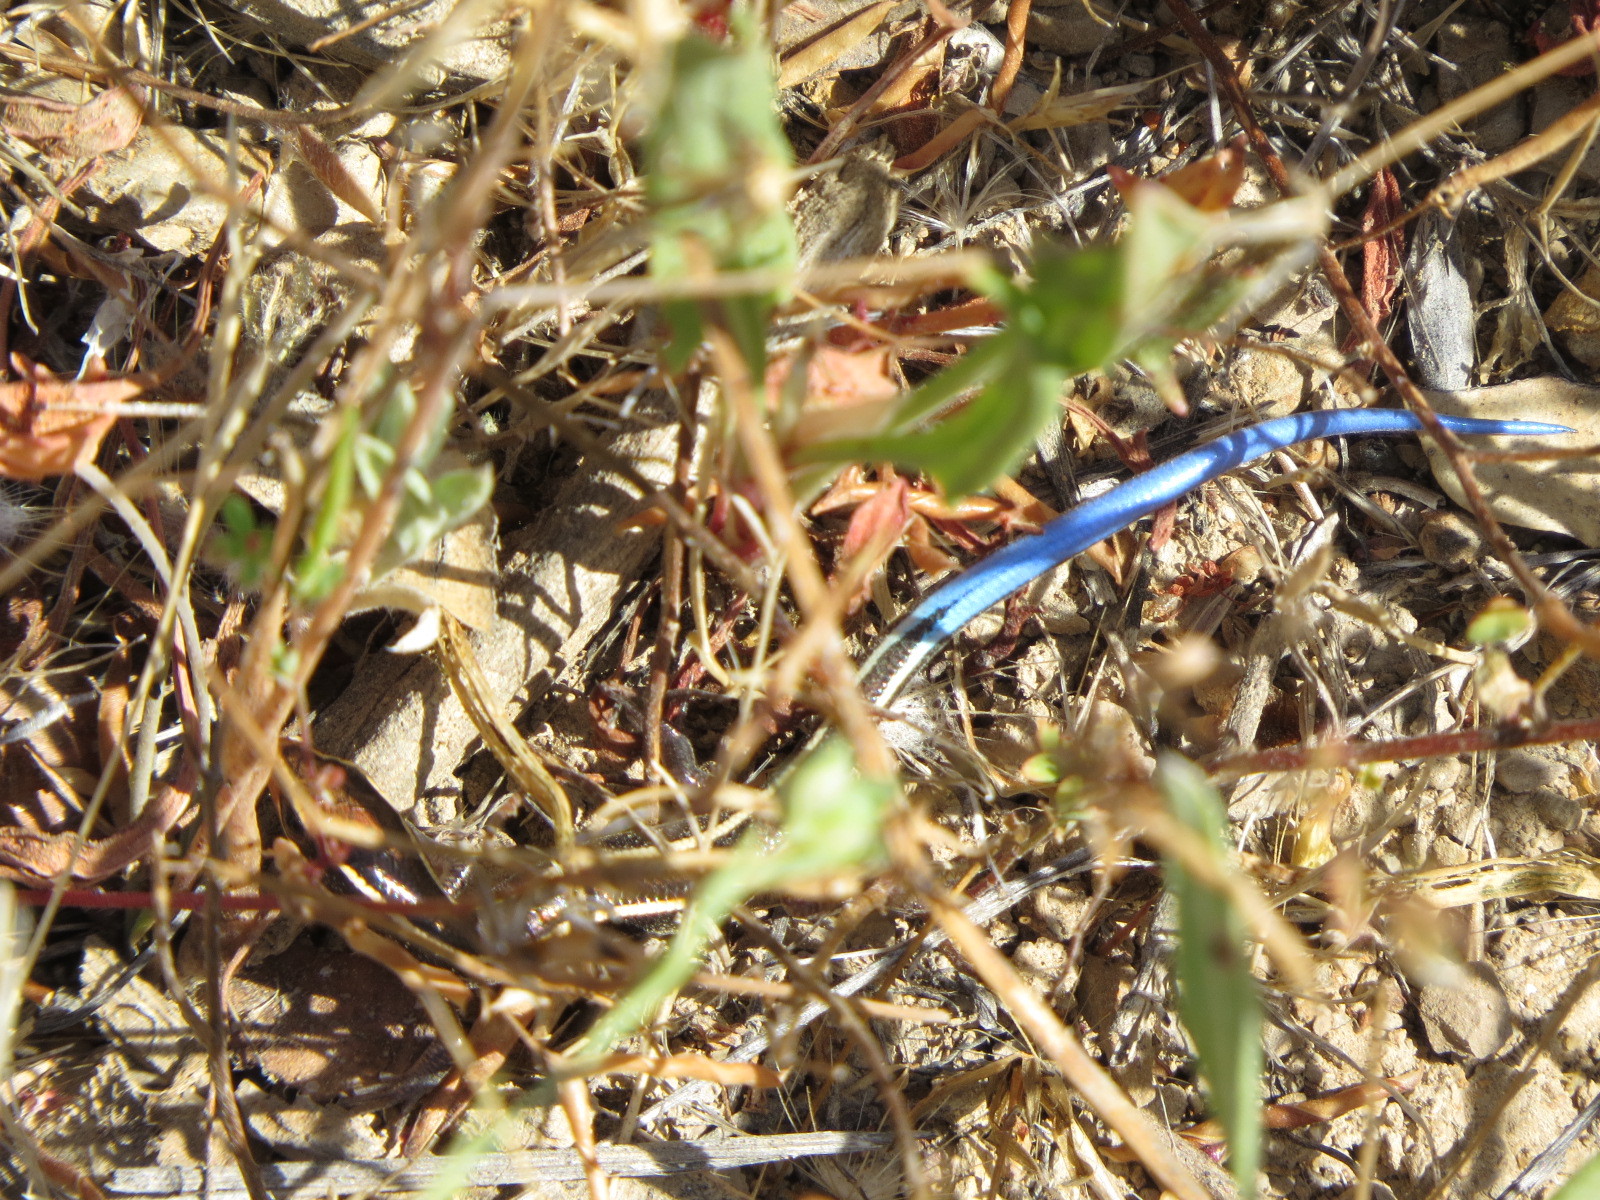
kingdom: Animalia
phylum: Chordata
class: Squamata
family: Scincidae
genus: Plestiodon
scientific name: Plestiodon skiltonianus
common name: Coronado island skink [interparietalis]
